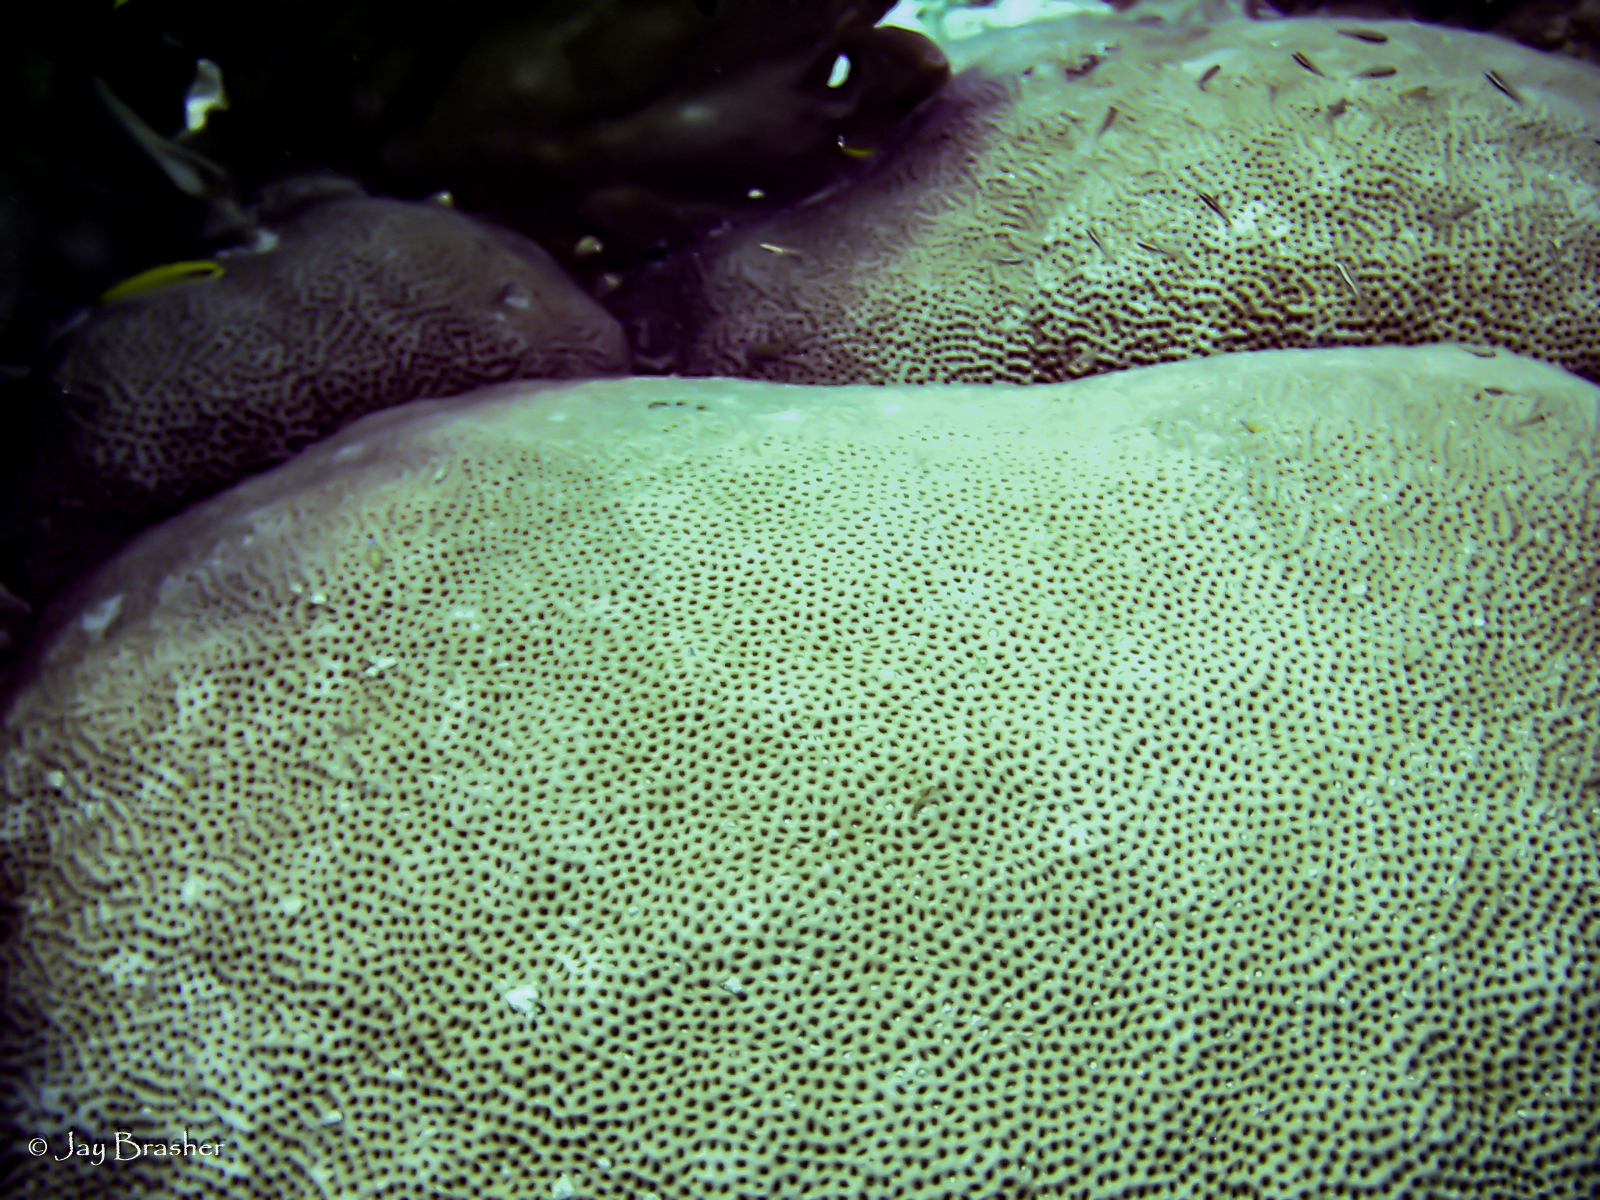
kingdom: Animalia
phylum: Cnidaria
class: Anthozoa
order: Scleractinia
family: Rhizangiidae
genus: Siderastrea
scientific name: Siderastrea siderea
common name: Massive starlet coral
